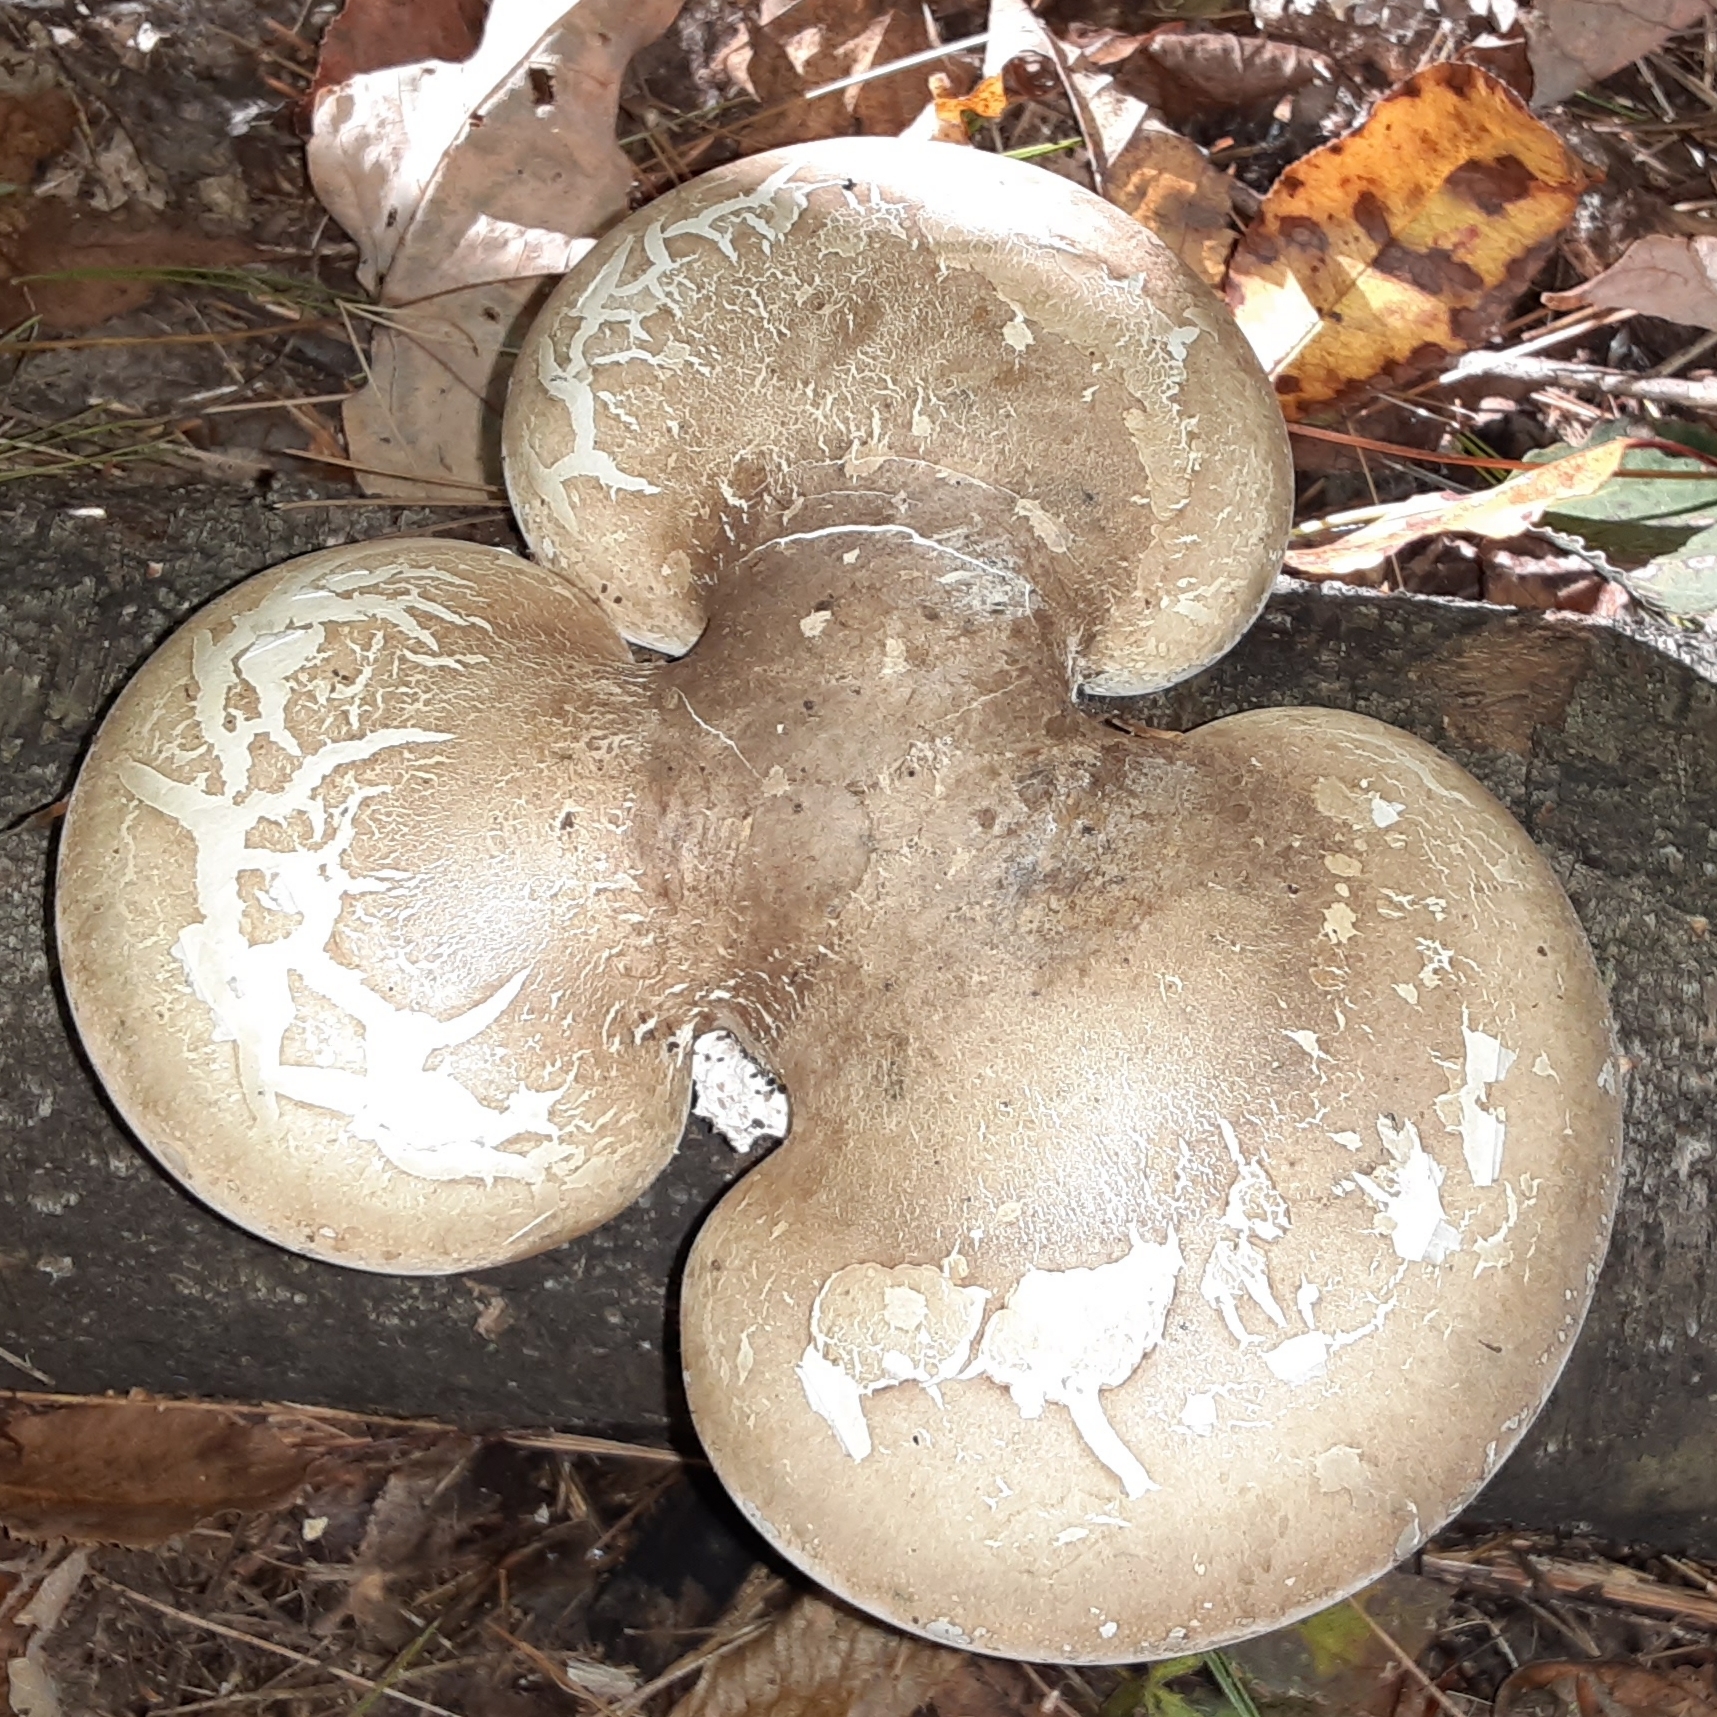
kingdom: Fungi
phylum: Basidiomycota
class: Agaricomycetes
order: Polyporales
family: Fomitopsidaceae
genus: Fomitopsis
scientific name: Fomitopsis betulina
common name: Birch polypore
